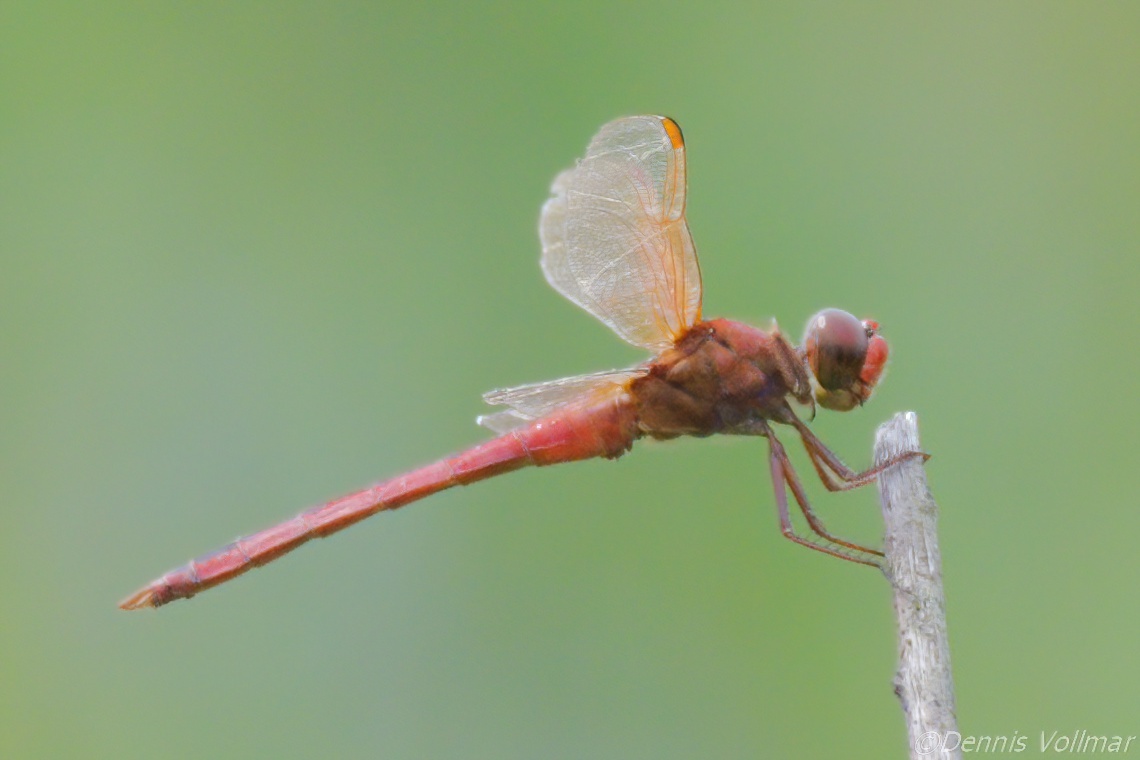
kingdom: Animalia
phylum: Arthropoda
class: Insecta
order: Odonata
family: Libellulidae
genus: Libellula
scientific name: Libellula needhami
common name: Needham's skimmer
